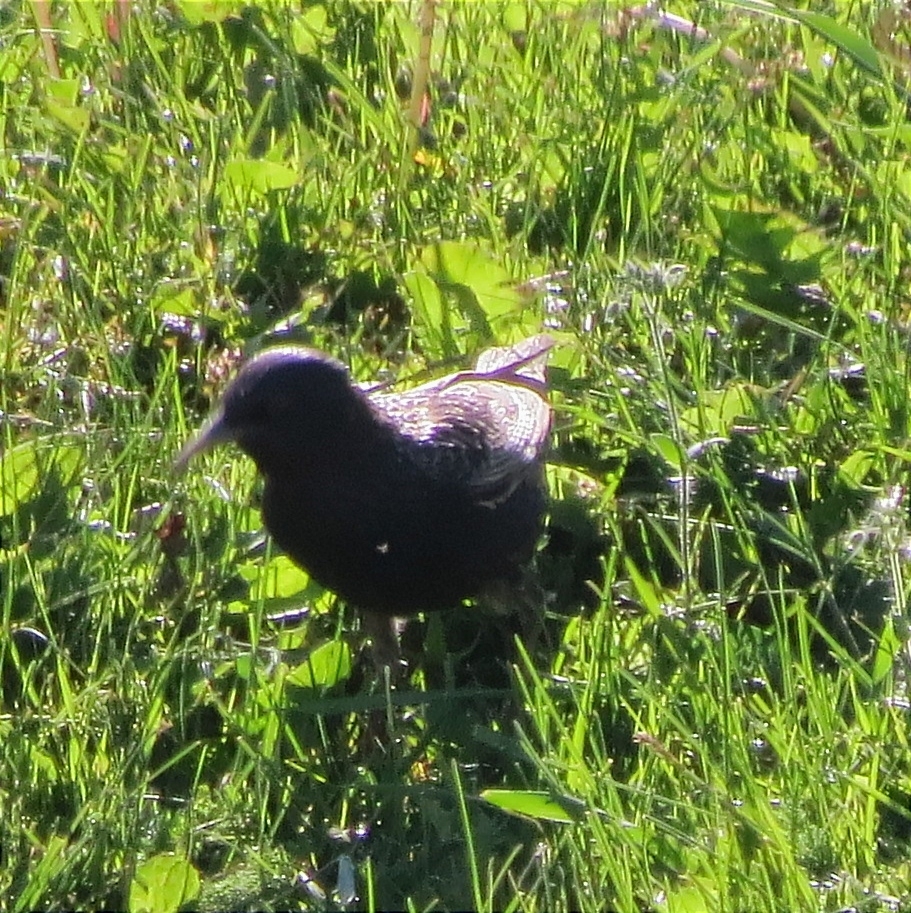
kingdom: Animalia
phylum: Chordata
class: Aves
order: Passeriformes
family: Sturnidae
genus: Sturnus
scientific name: Sturnus vulgaris
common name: Common starling
